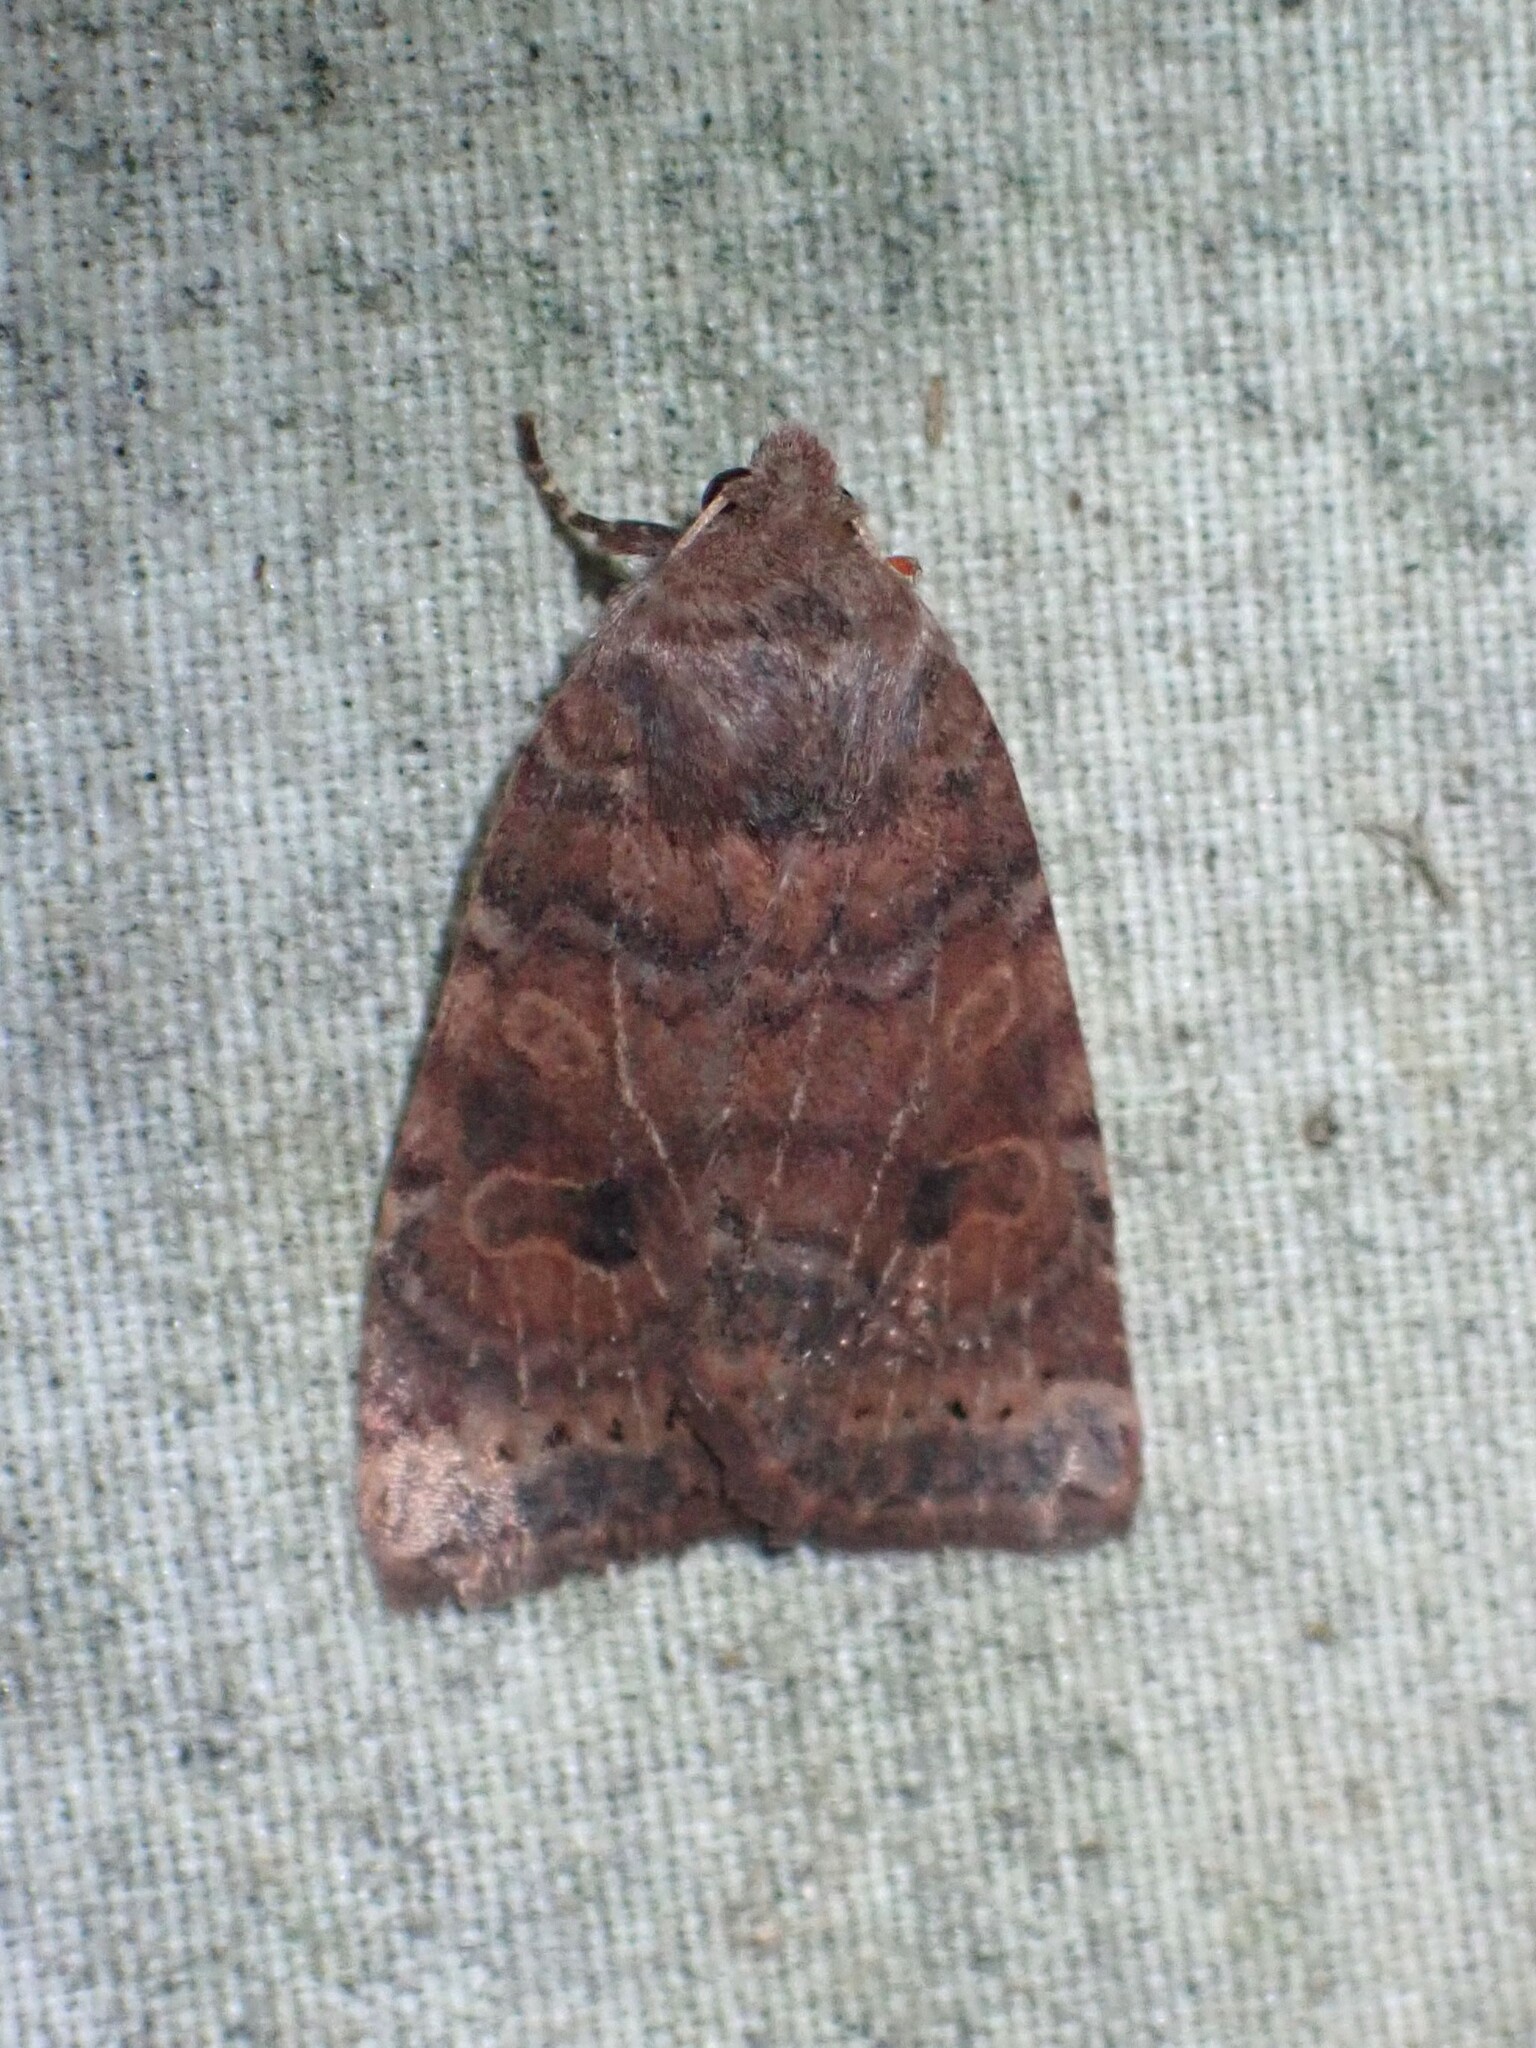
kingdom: Animalia
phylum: Arthropoda
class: Insecta
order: Lepidoptera
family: Noctuidae
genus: Anathix
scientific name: Anathix puta
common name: Puta sallow
